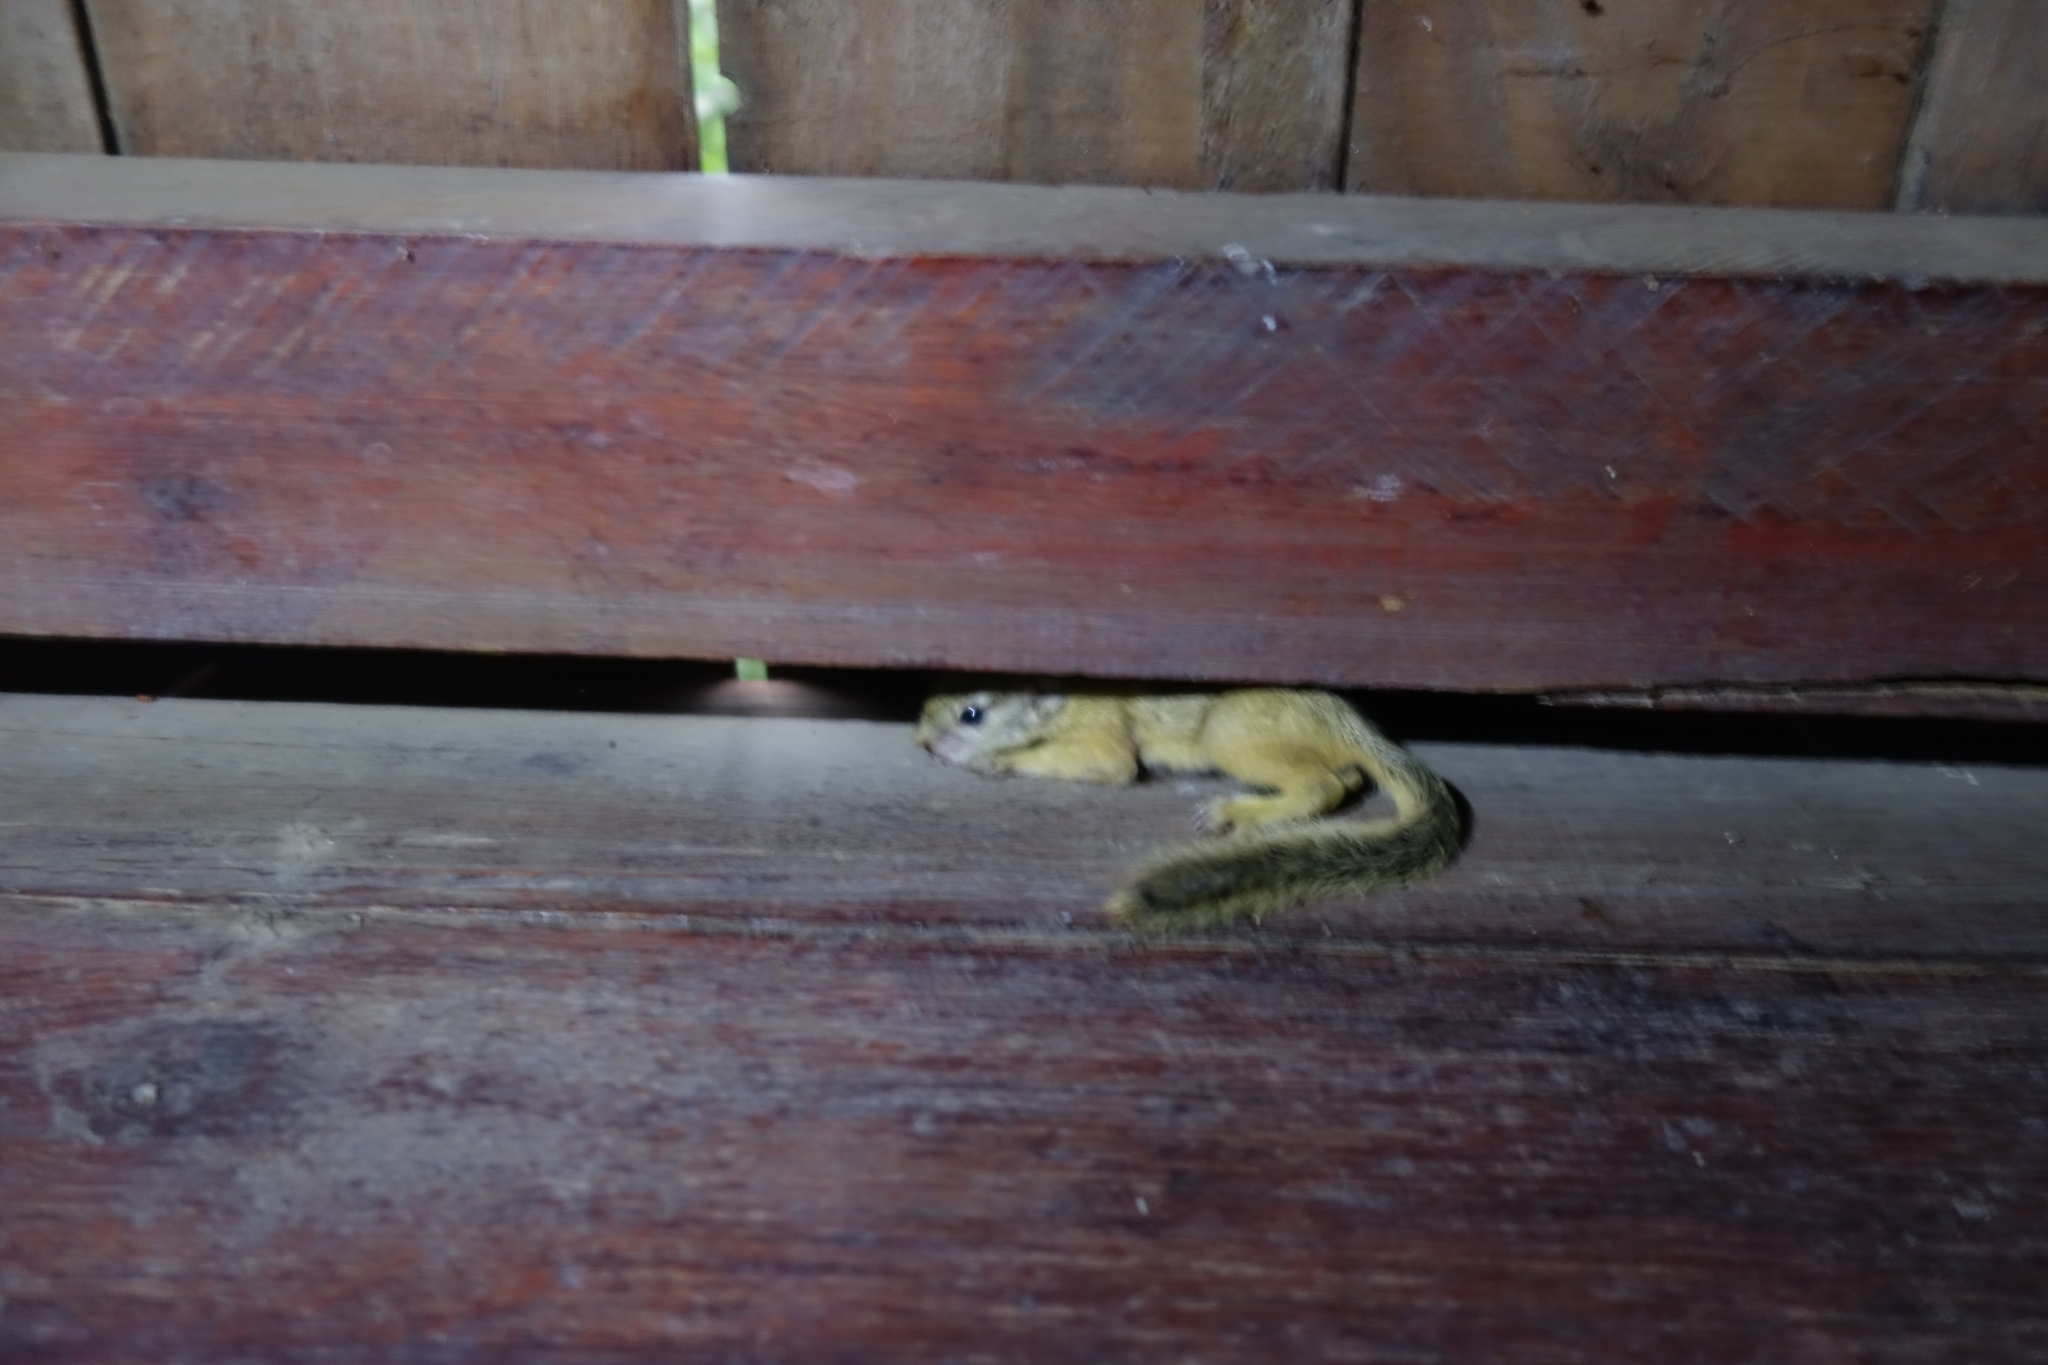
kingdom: Animalia
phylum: Chordata
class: Mammalia
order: Rodentia
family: Sciuridae
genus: Paraxerus
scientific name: Paraxerus cepapi
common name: Smith's bush squirrel
